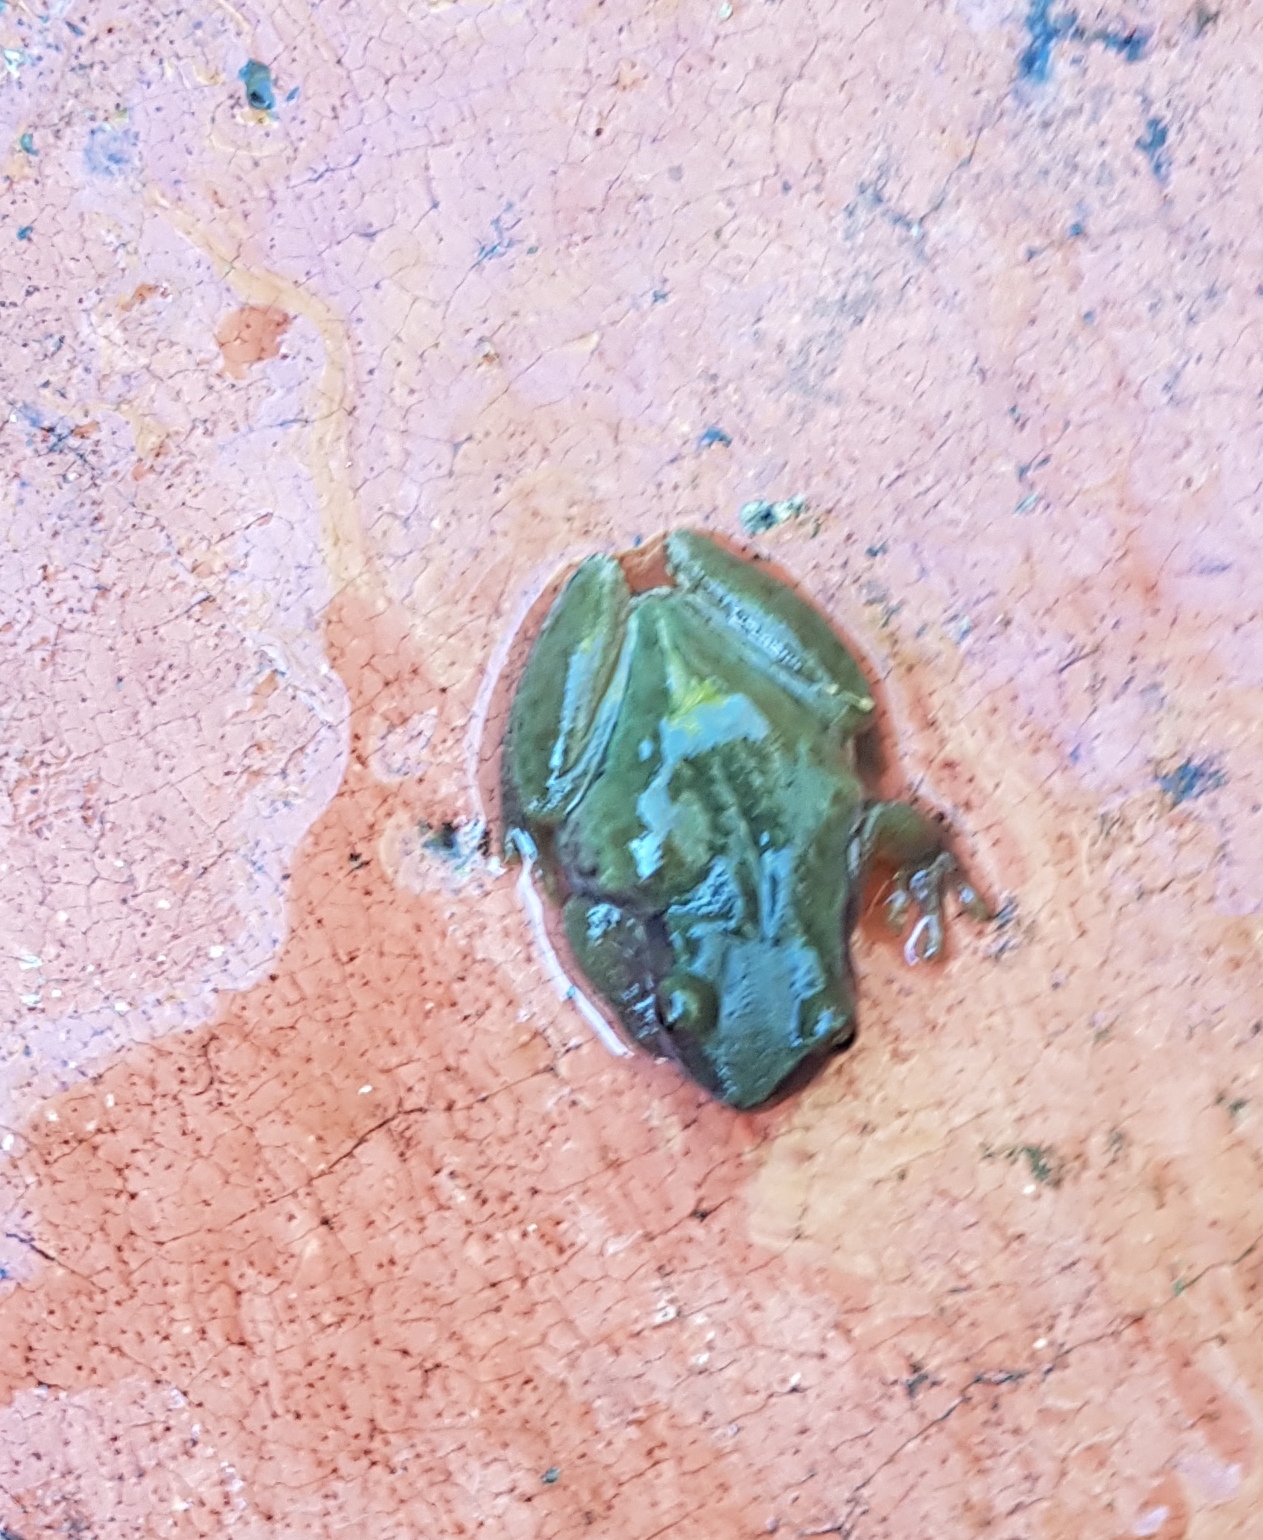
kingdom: Animalia
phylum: Chordata
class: Amphibia
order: Anura
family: Hylidae
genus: Exerodonta
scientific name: Exerodonta xera
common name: Puebla treefrog
